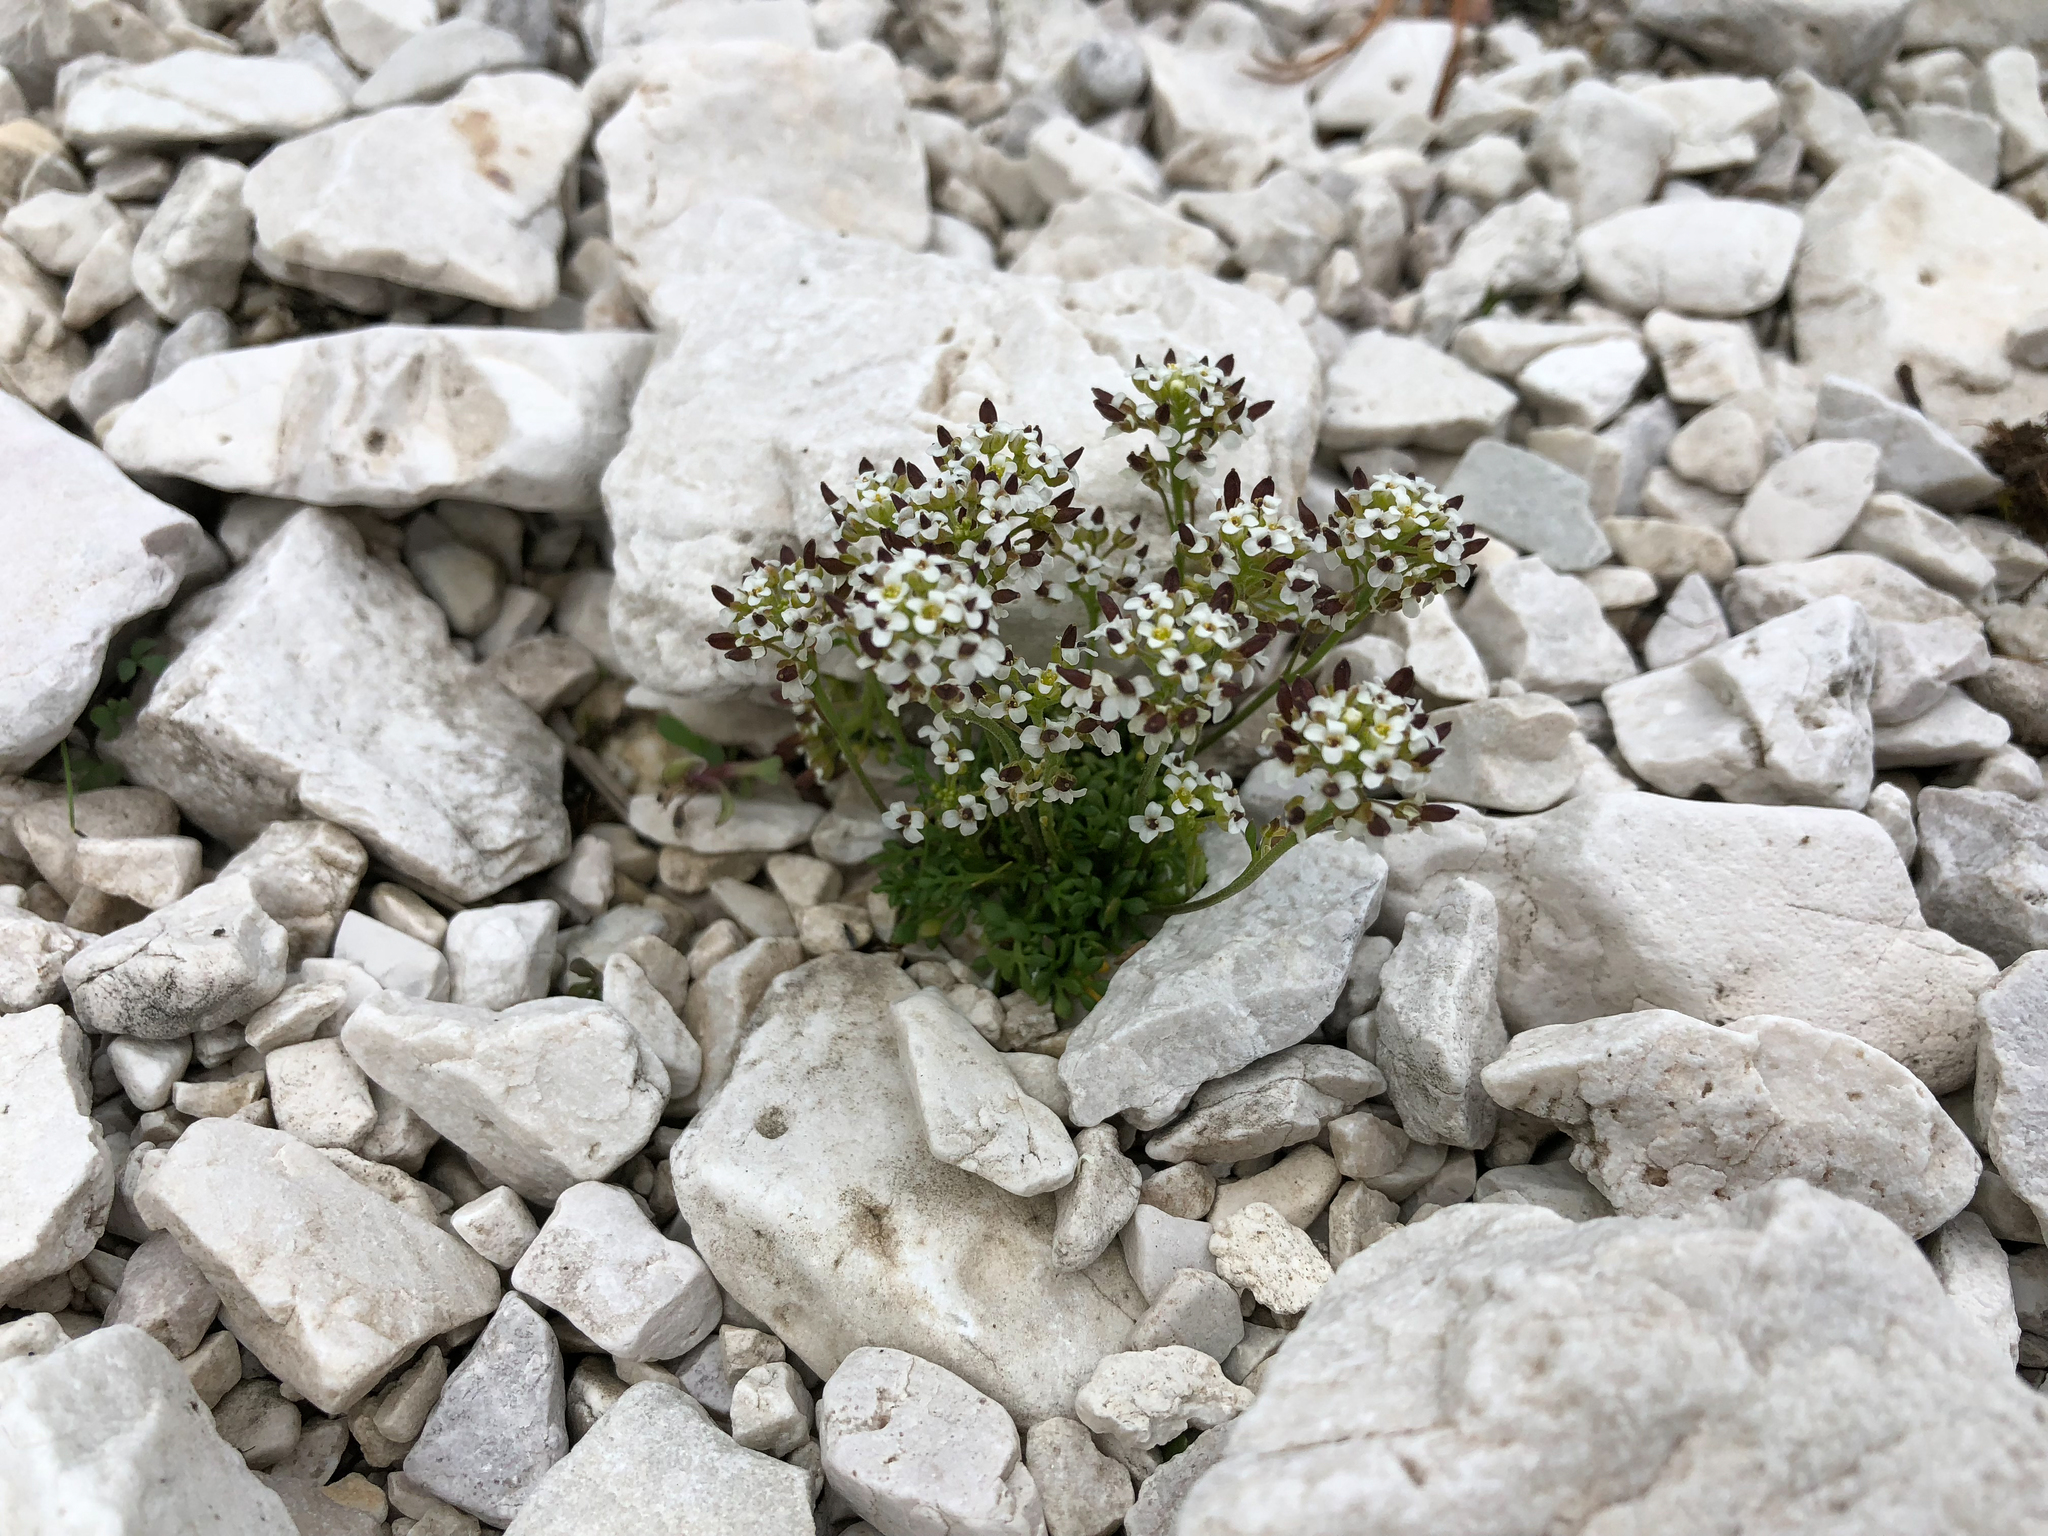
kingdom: Plantae
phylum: Tracheophyta
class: Magnoliopsida
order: Brassicales
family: Brassicaceae
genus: Hornungia
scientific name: Hornungia alpina
